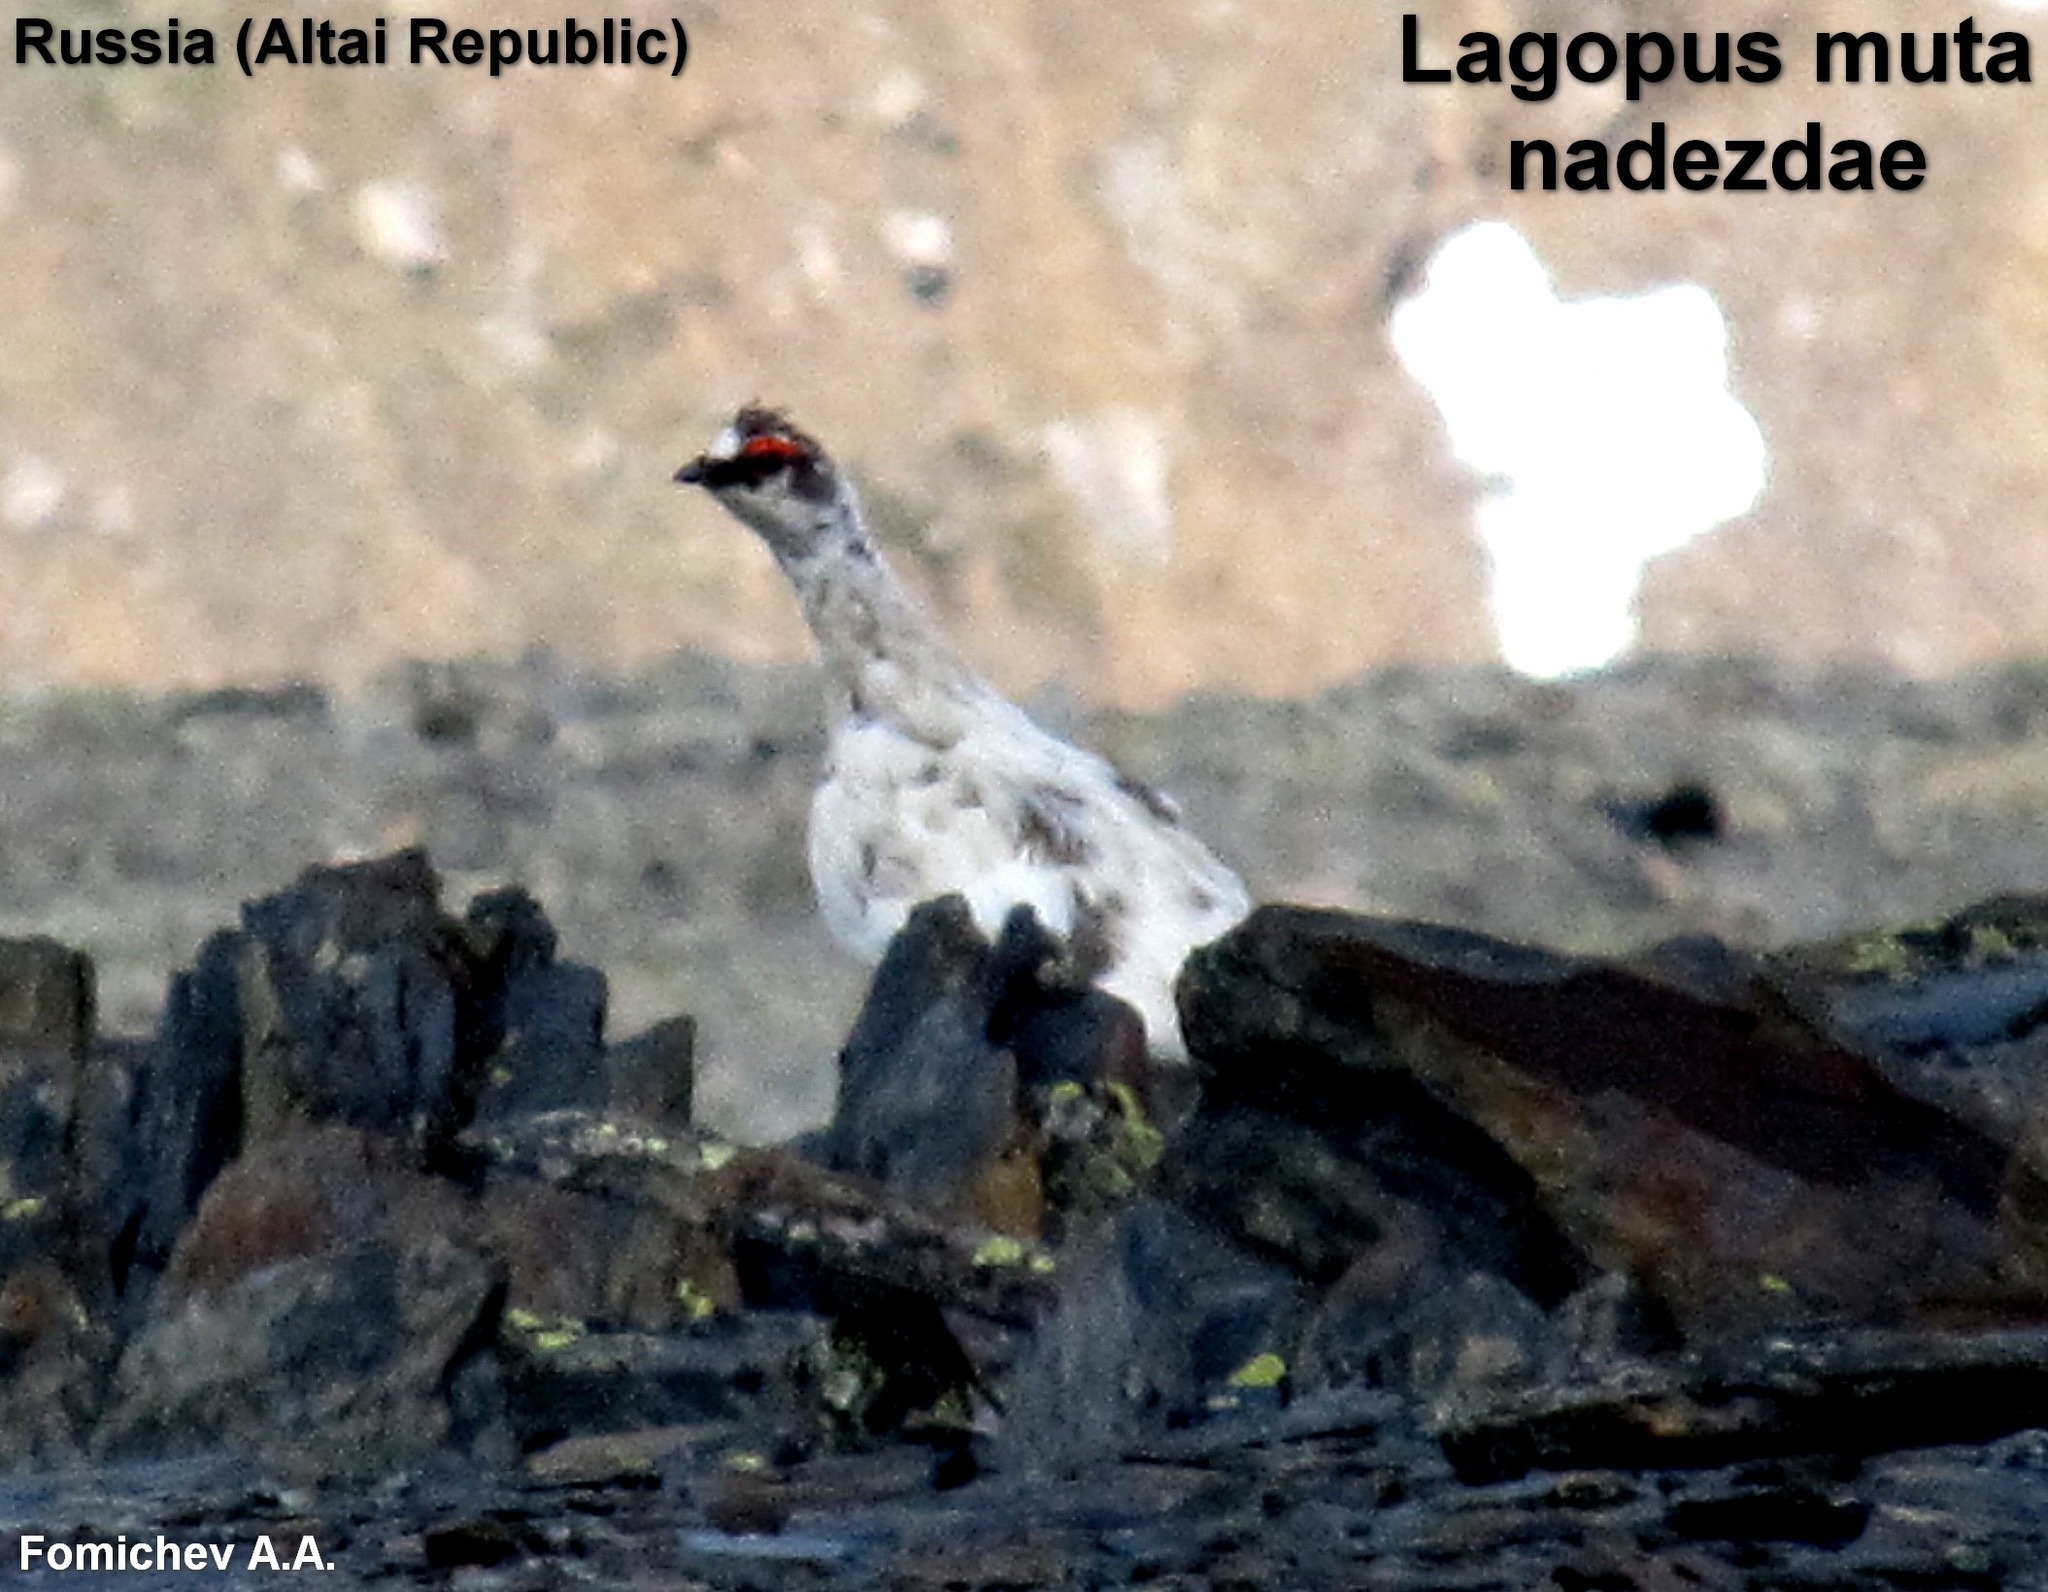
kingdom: Animalia
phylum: Chordata
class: Aves
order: Galliformes
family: Phasianidae
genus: Lagopus
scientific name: Lagopus muta
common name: Rock ptarmigan
